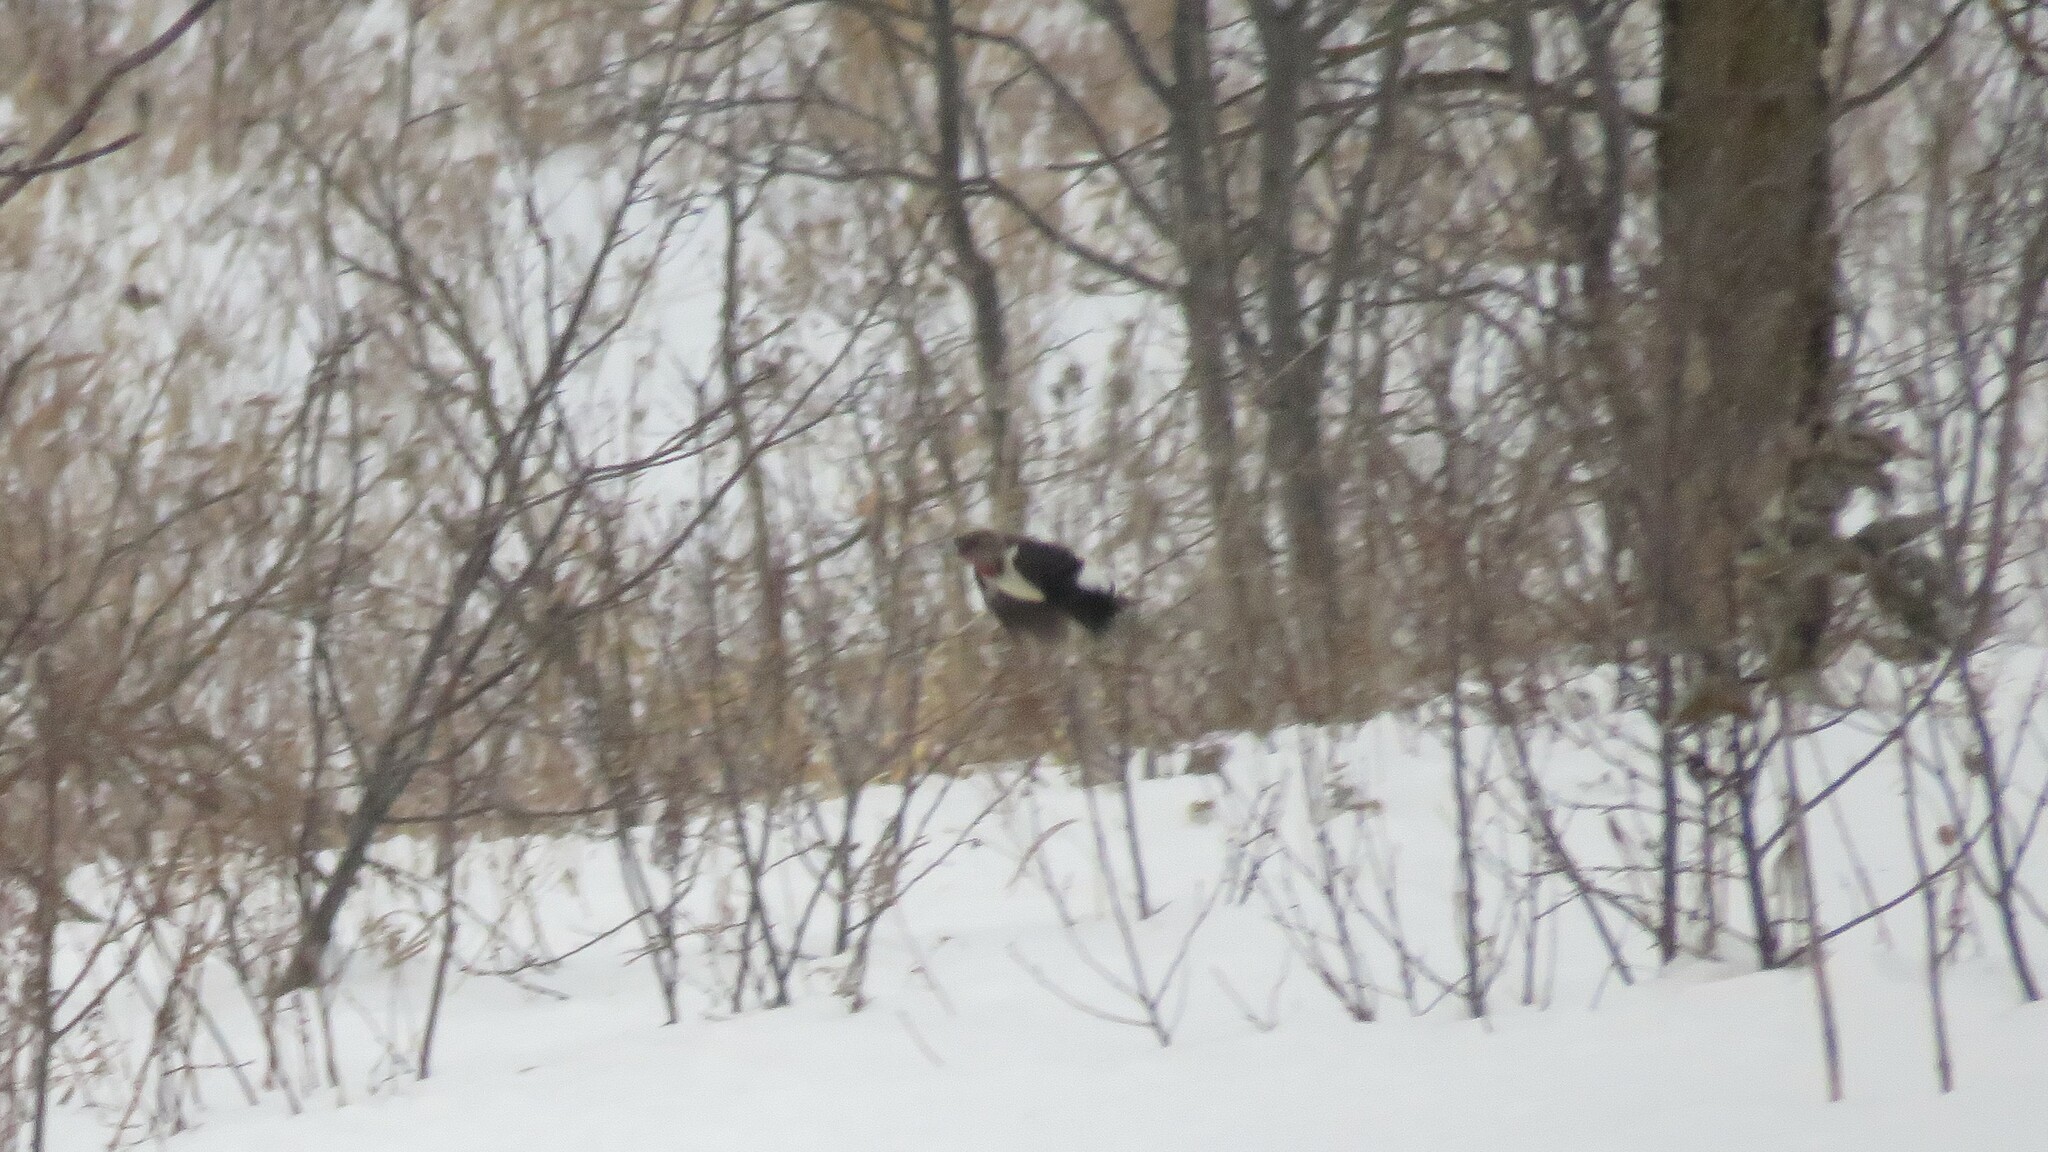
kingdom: Animalia
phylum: Chordata
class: Aves
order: Piciformes
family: Picidae
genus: Melanerpes
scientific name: Melanerpes erythrocephalus
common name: Red-headed woodpecker
